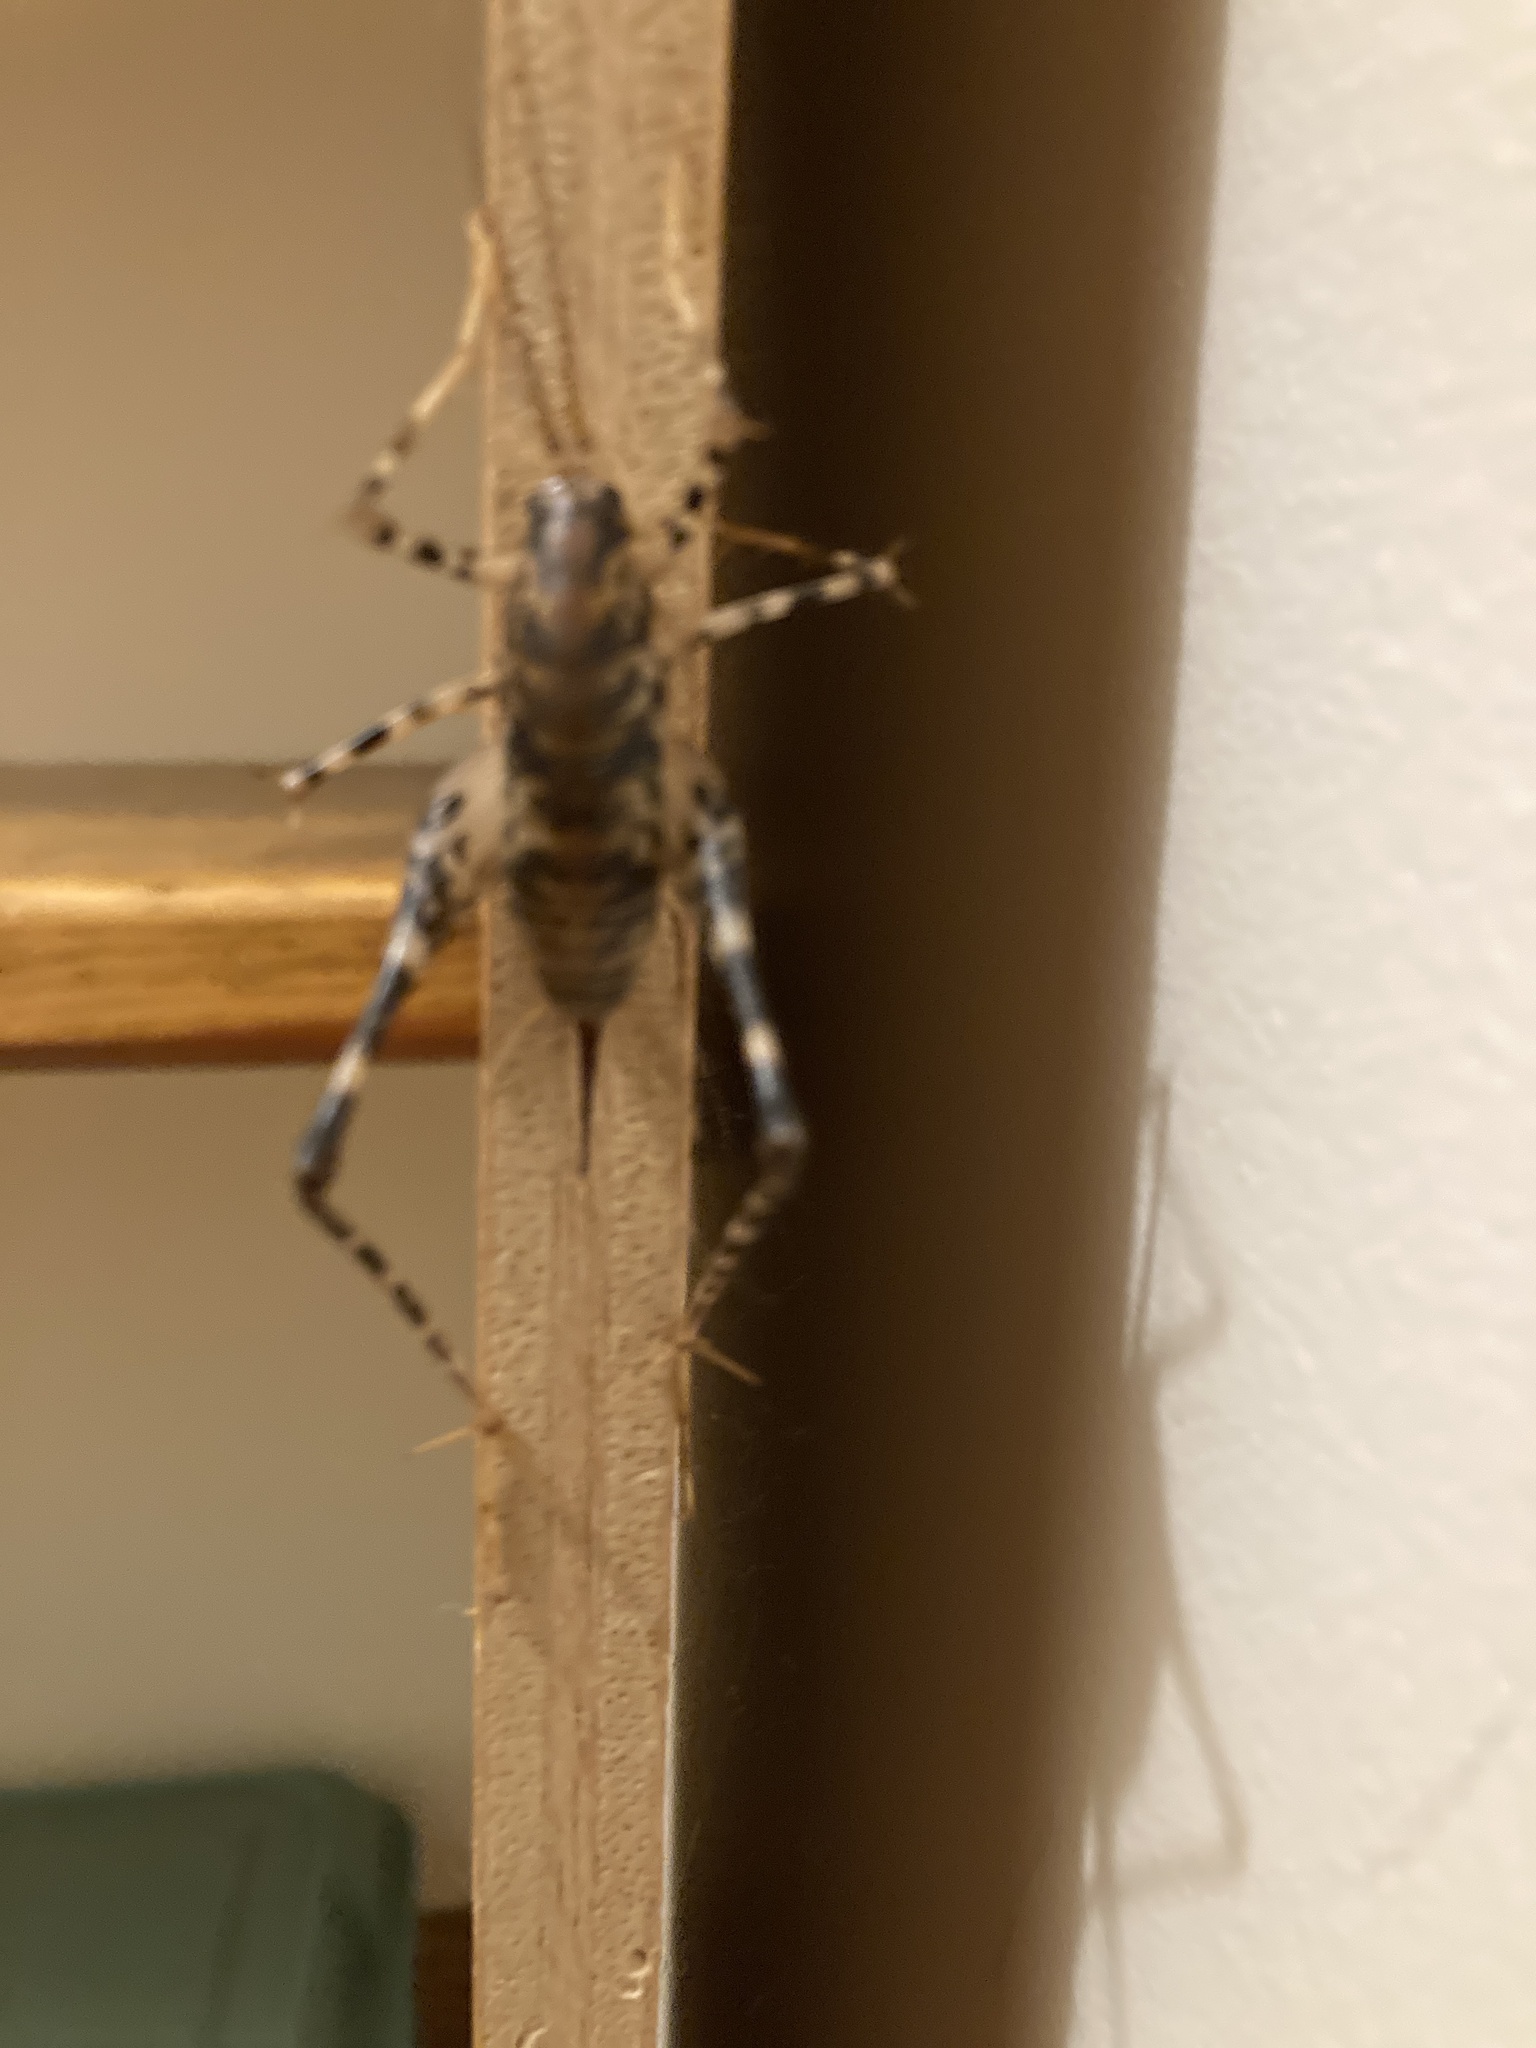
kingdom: Animalia
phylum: Arthropoda
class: Insecta
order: Orthoptera
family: Rhaphidophoridae
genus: Diestrammena
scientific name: Diestrammena japanica
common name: Japanese camel cricket
